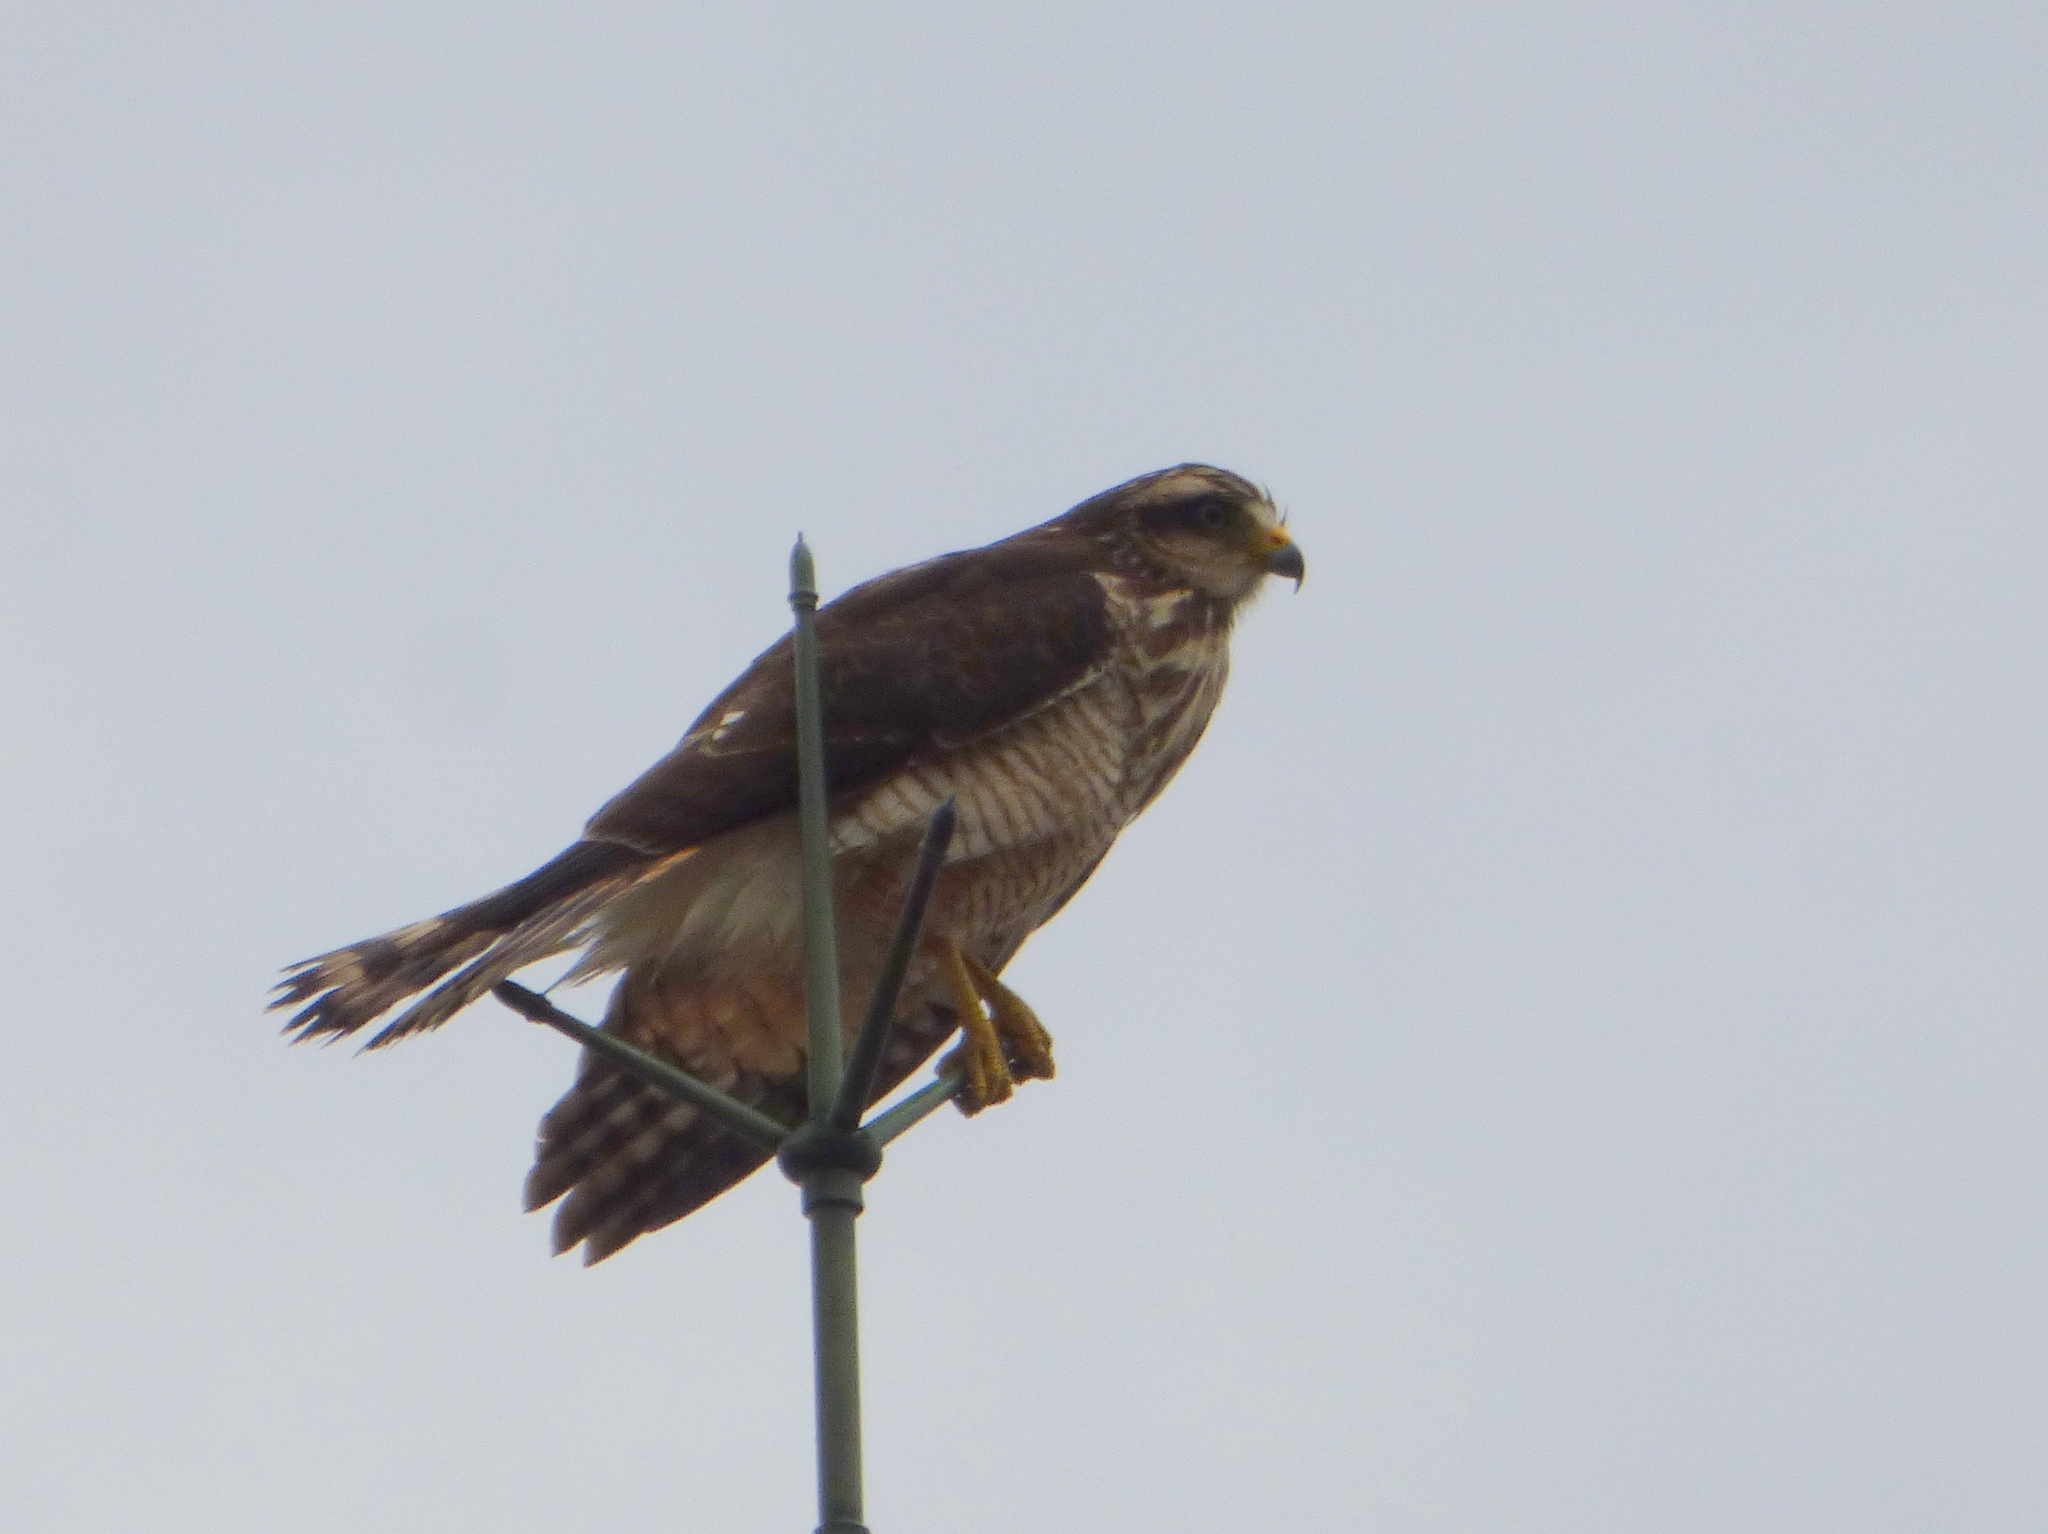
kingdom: Animalia
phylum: Chordata
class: Aves
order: Accipitriformes
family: Accipitridae
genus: Rupornis
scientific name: Rupornis magnirostris
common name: Roadside hawk
